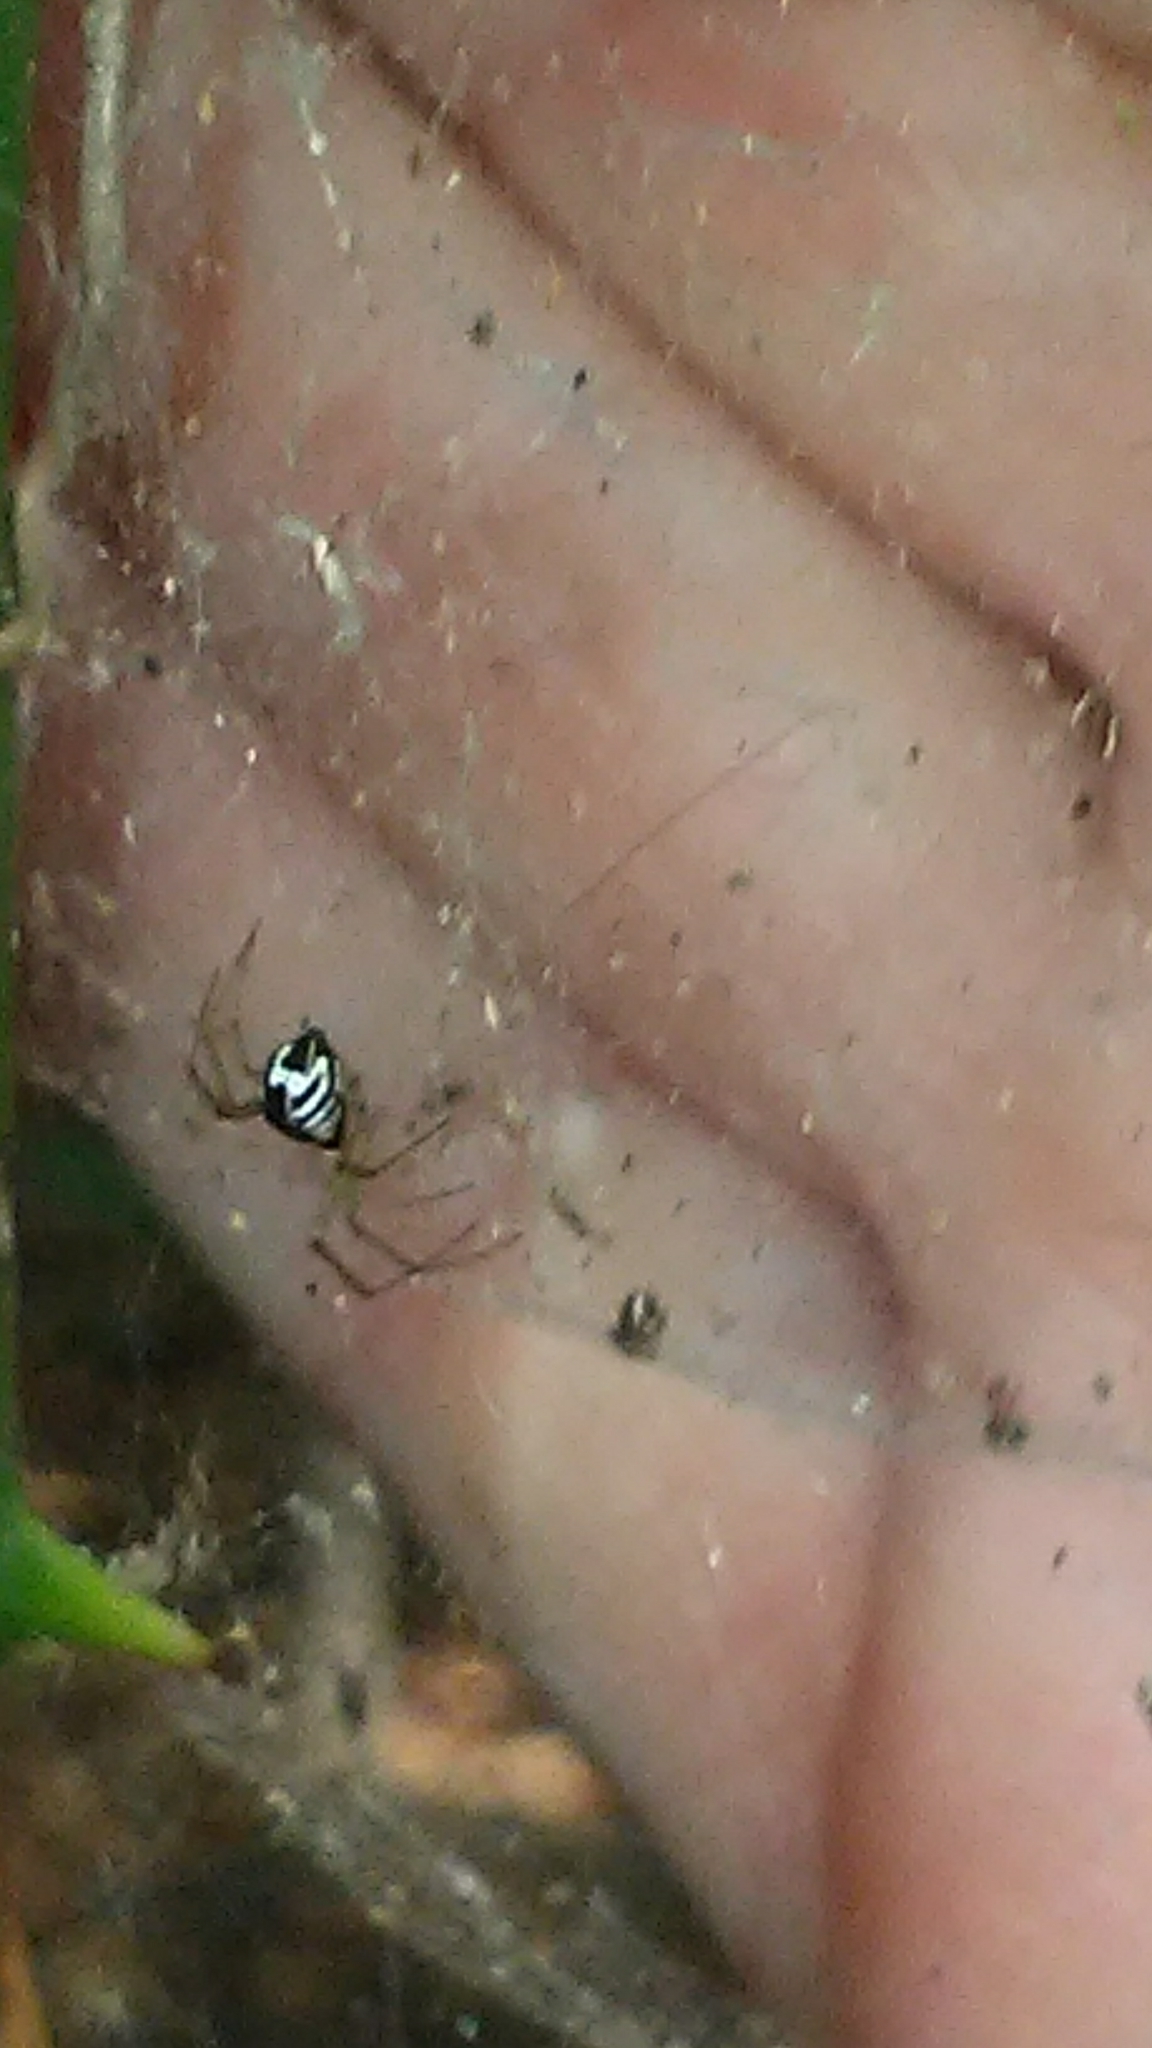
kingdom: Animalia
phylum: Arthropoda
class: Arachnida
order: Araneae
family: Linyphiidae
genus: Frontinella
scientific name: Frontinella pyramitela
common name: Bowl-and-doily spider
